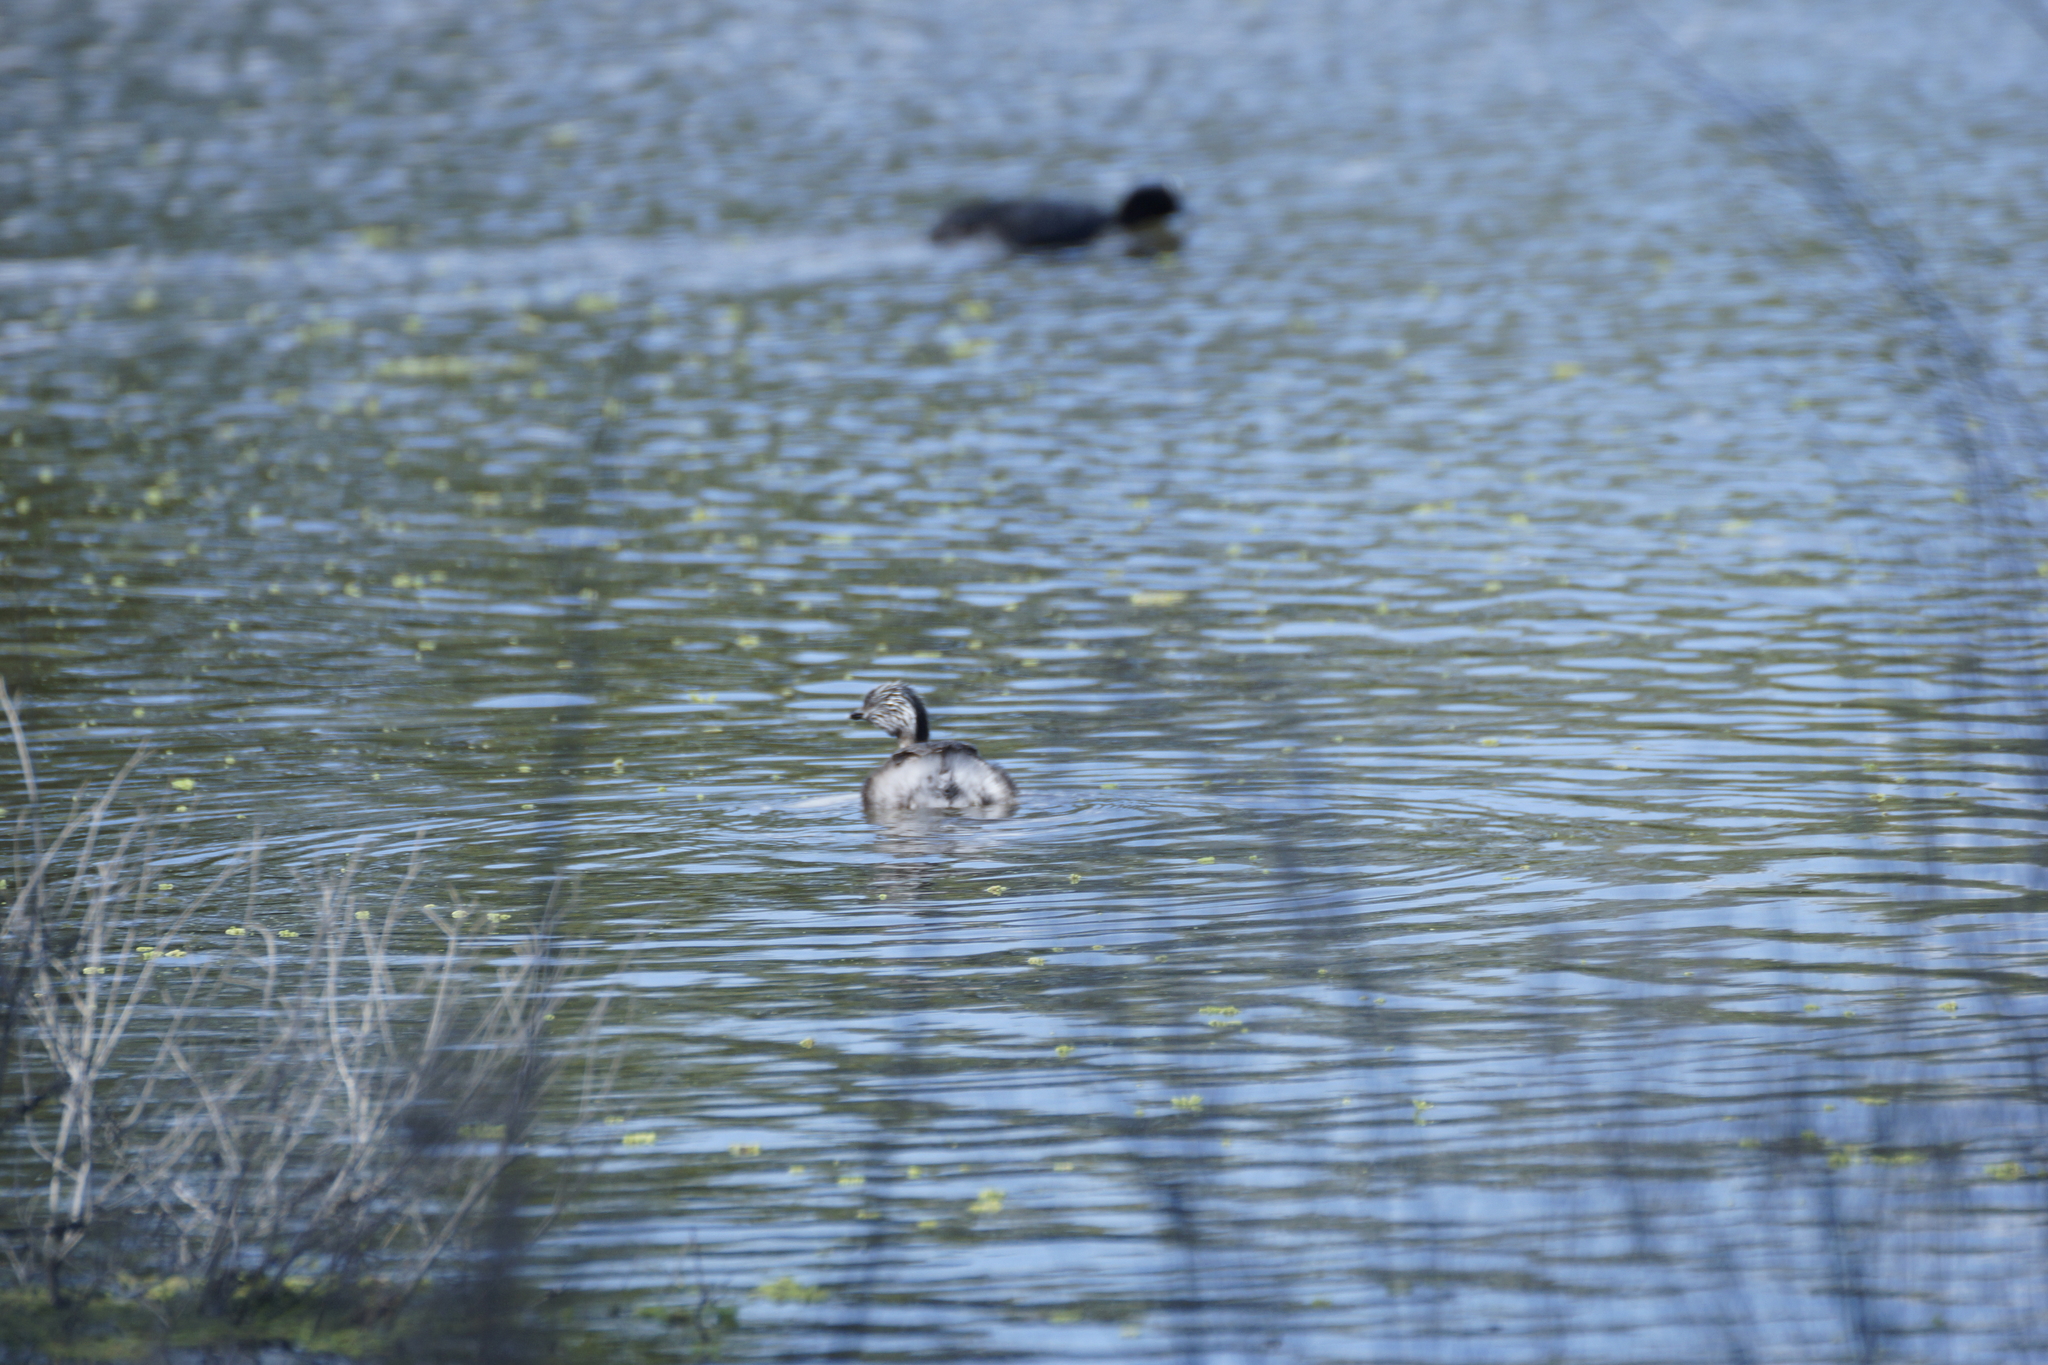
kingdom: Animalia
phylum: Chordata
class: Aves
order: Podicipediformes
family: Podicipedidae
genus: Poliocephalus
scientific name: Poliocephalus poliocephalus
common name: Hoary-headed grebe
